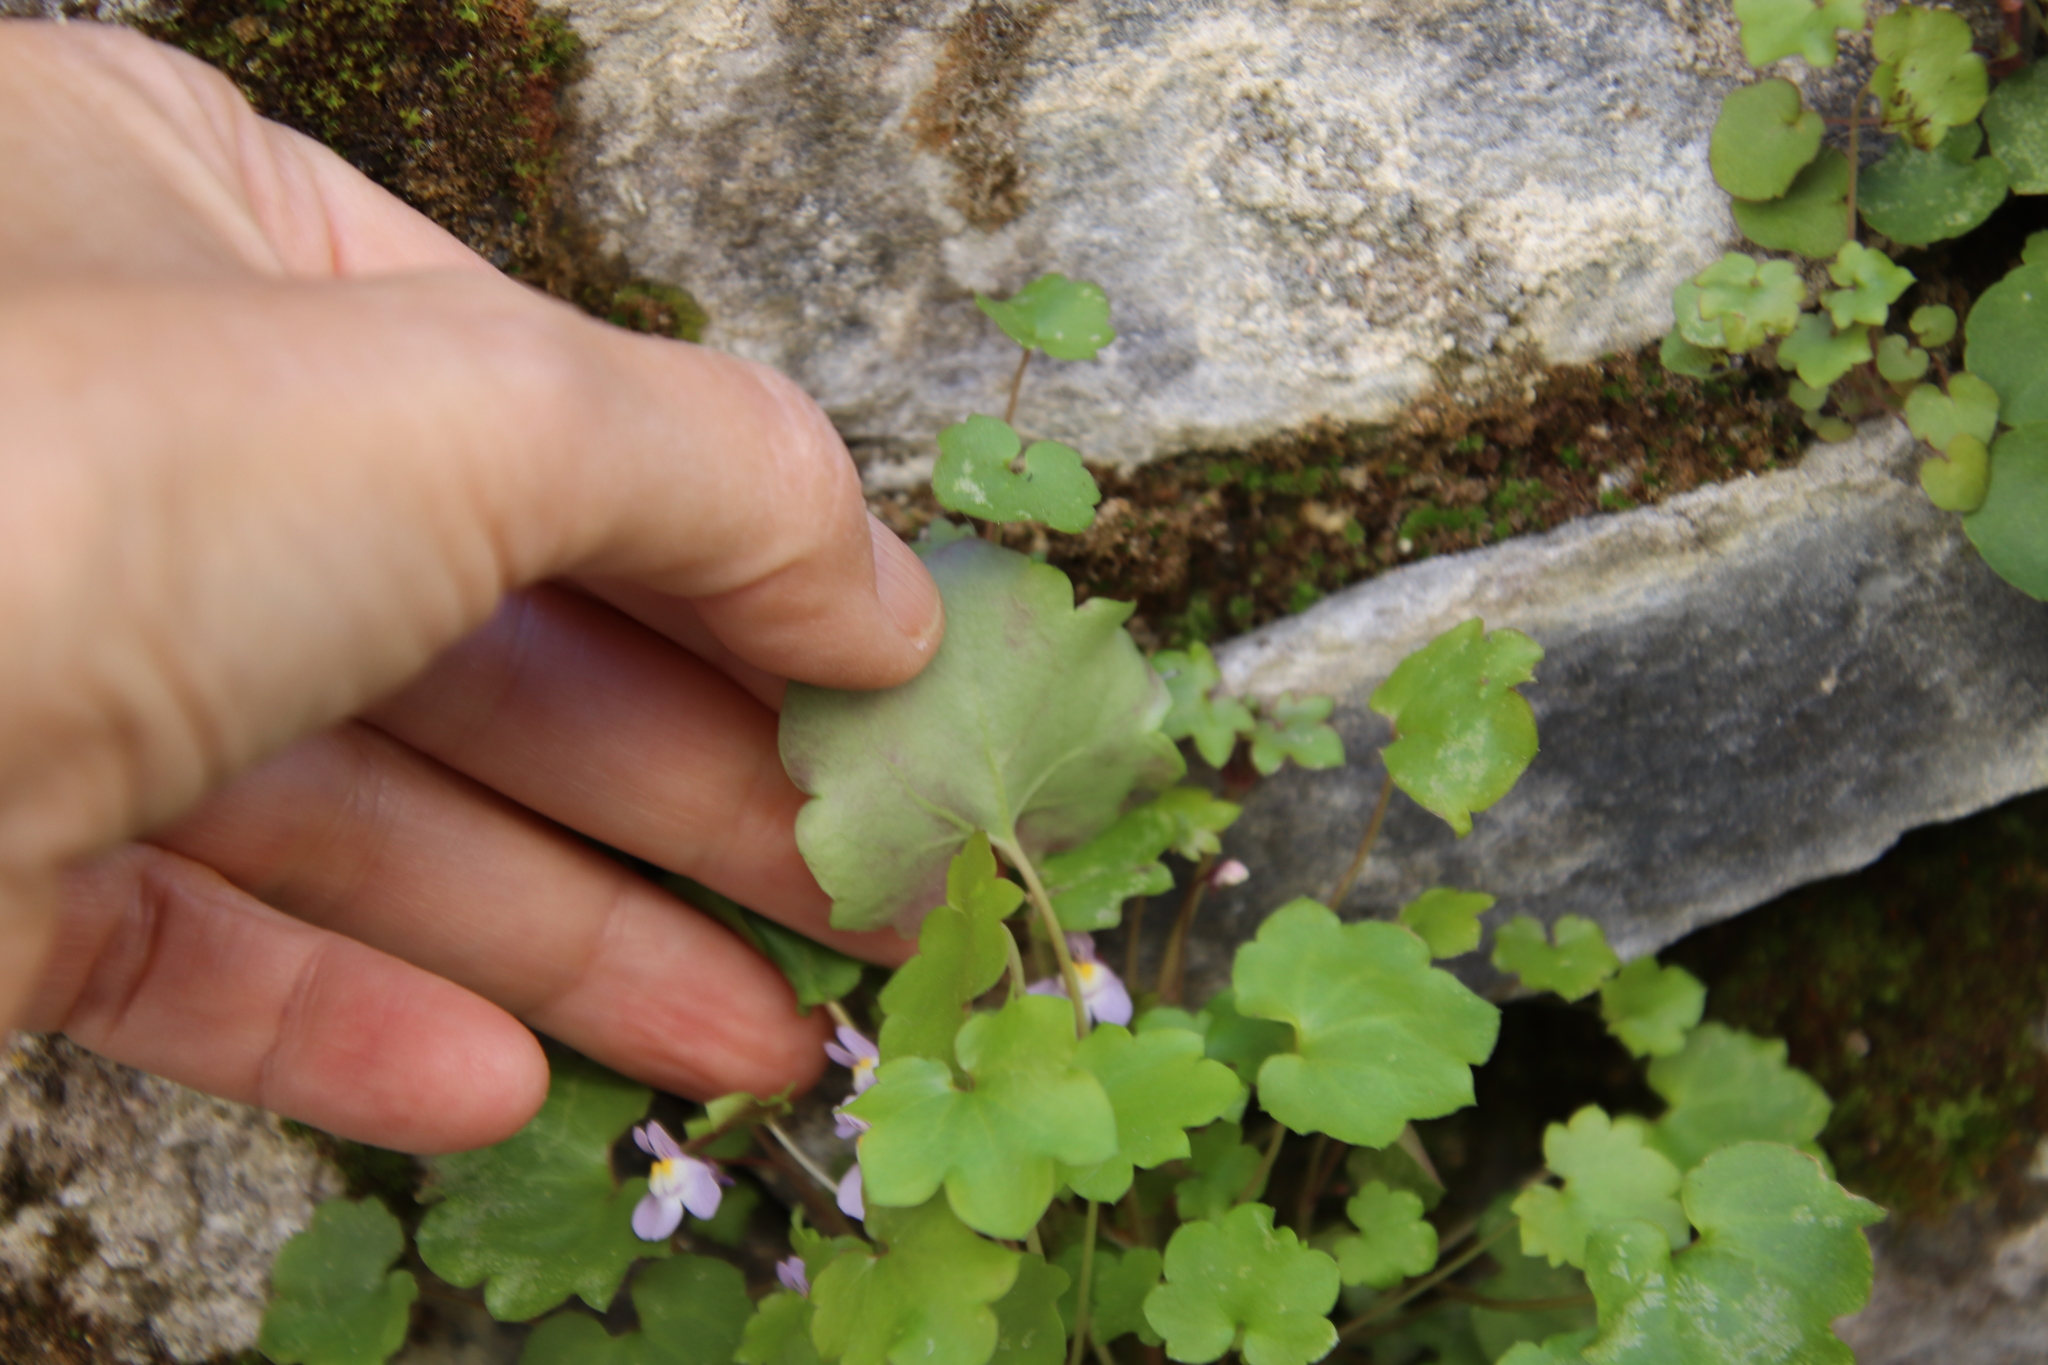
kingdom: Plantae
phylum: Tracheophyta
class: Magnoliopsida
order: Lamiales
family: Plantaginaceae
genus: Cymbalaria
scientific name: Cymbalaria muralis
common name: Ivy-leaved toadflax
